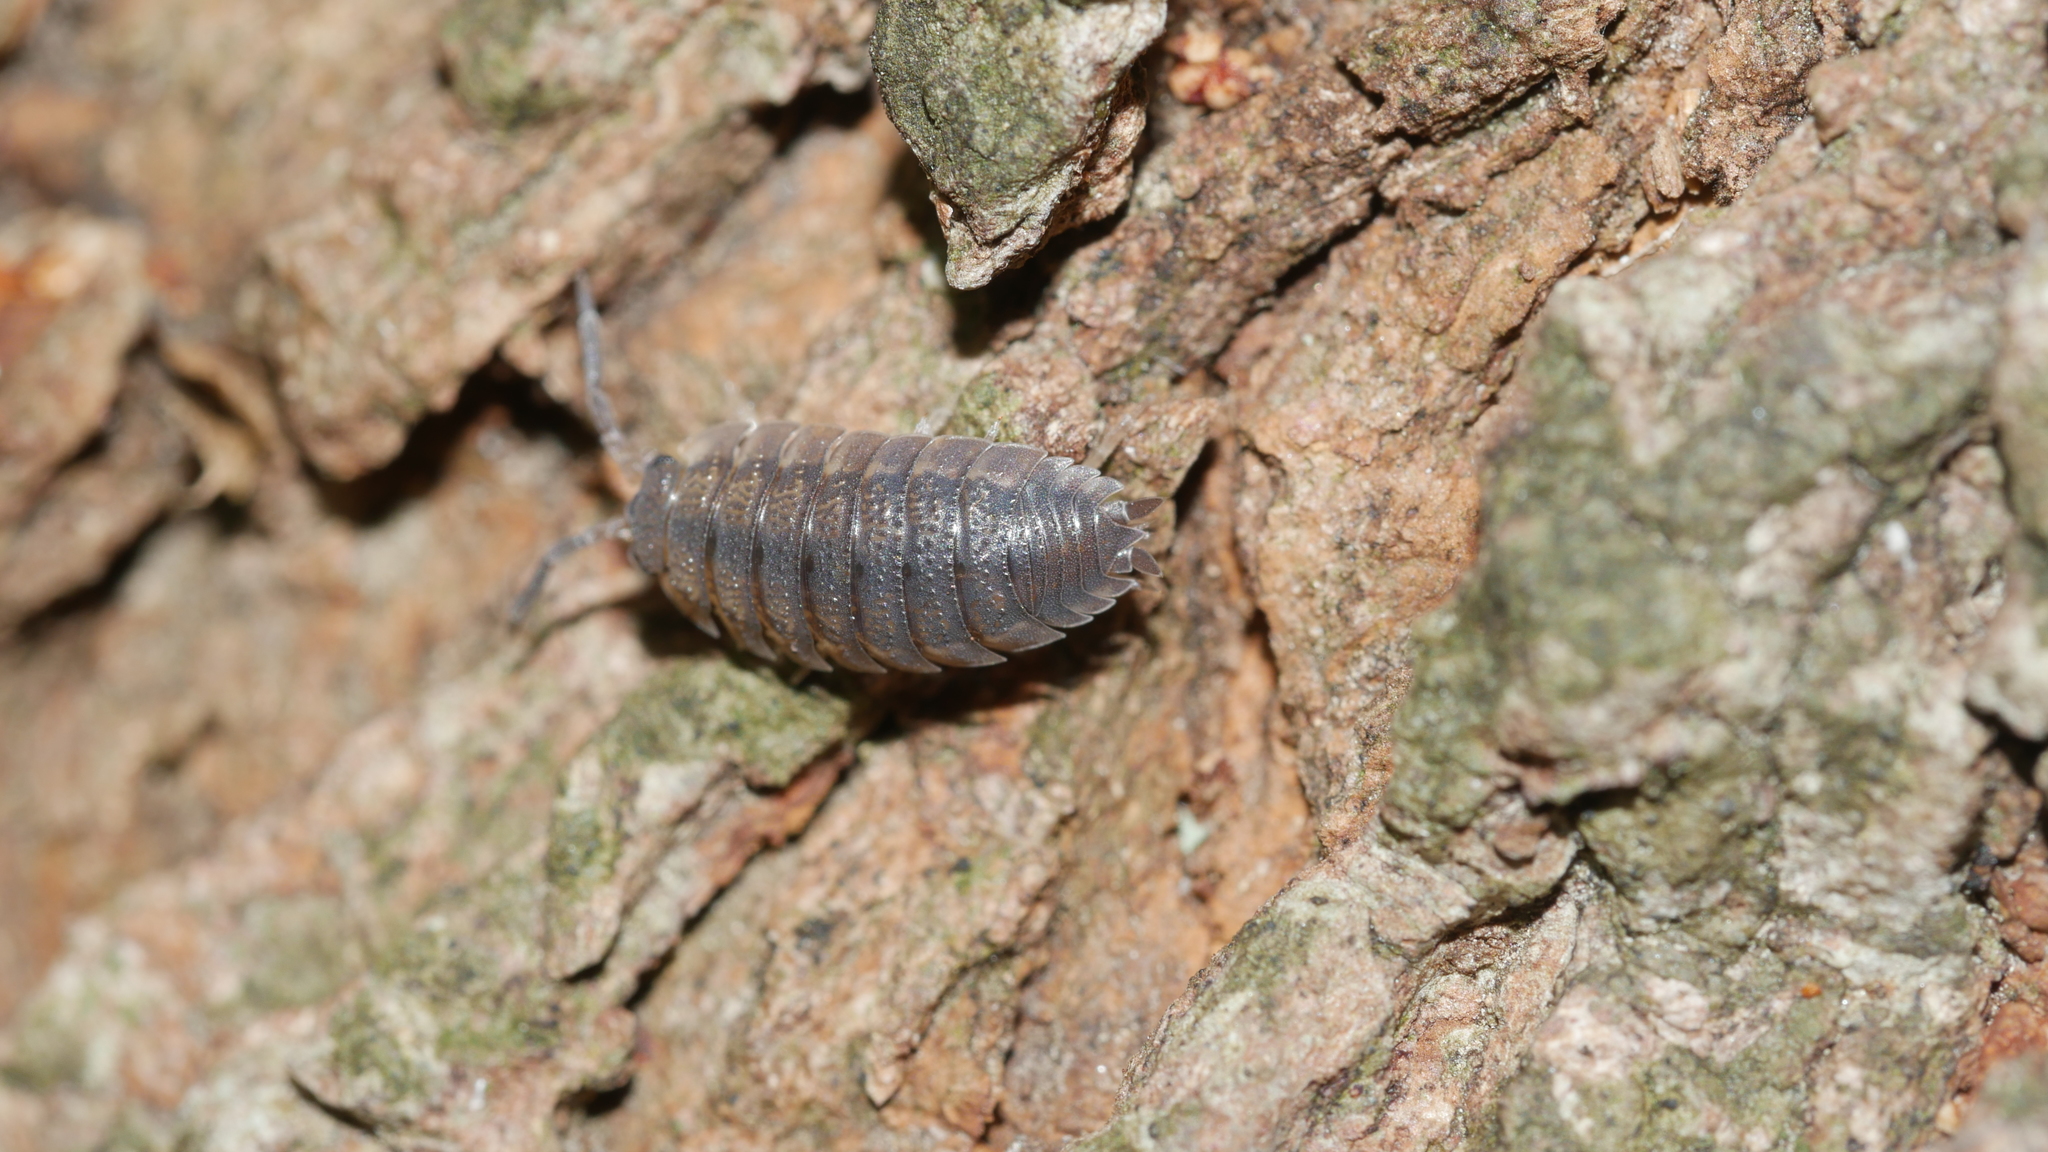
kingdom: Animalia
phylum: Arthropoda
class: Malacostraca
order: Isopoda
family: Porcellionidae
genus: Porcellio
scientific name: Porcellio scaber
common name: Common rough woodlouse
